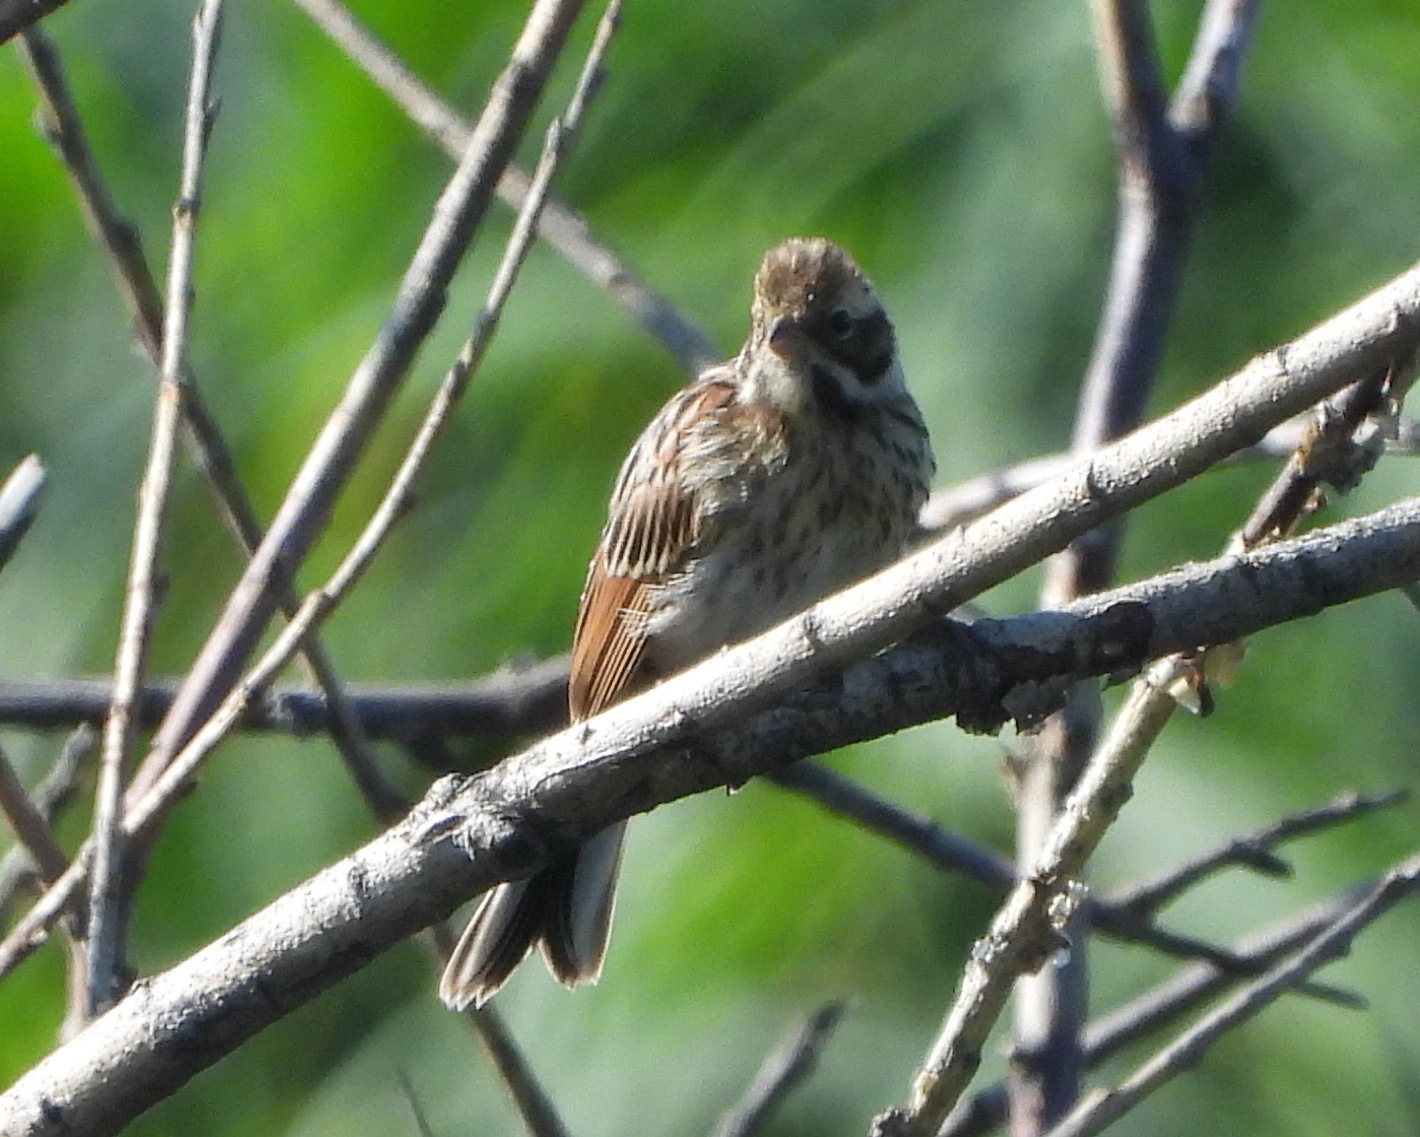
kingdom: Animalia
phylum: Chordata
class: Aves
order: Passeriformes
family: Emberizidae
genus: Emberiza
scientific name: Emberiza schoeniclus
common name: Reed bunting
